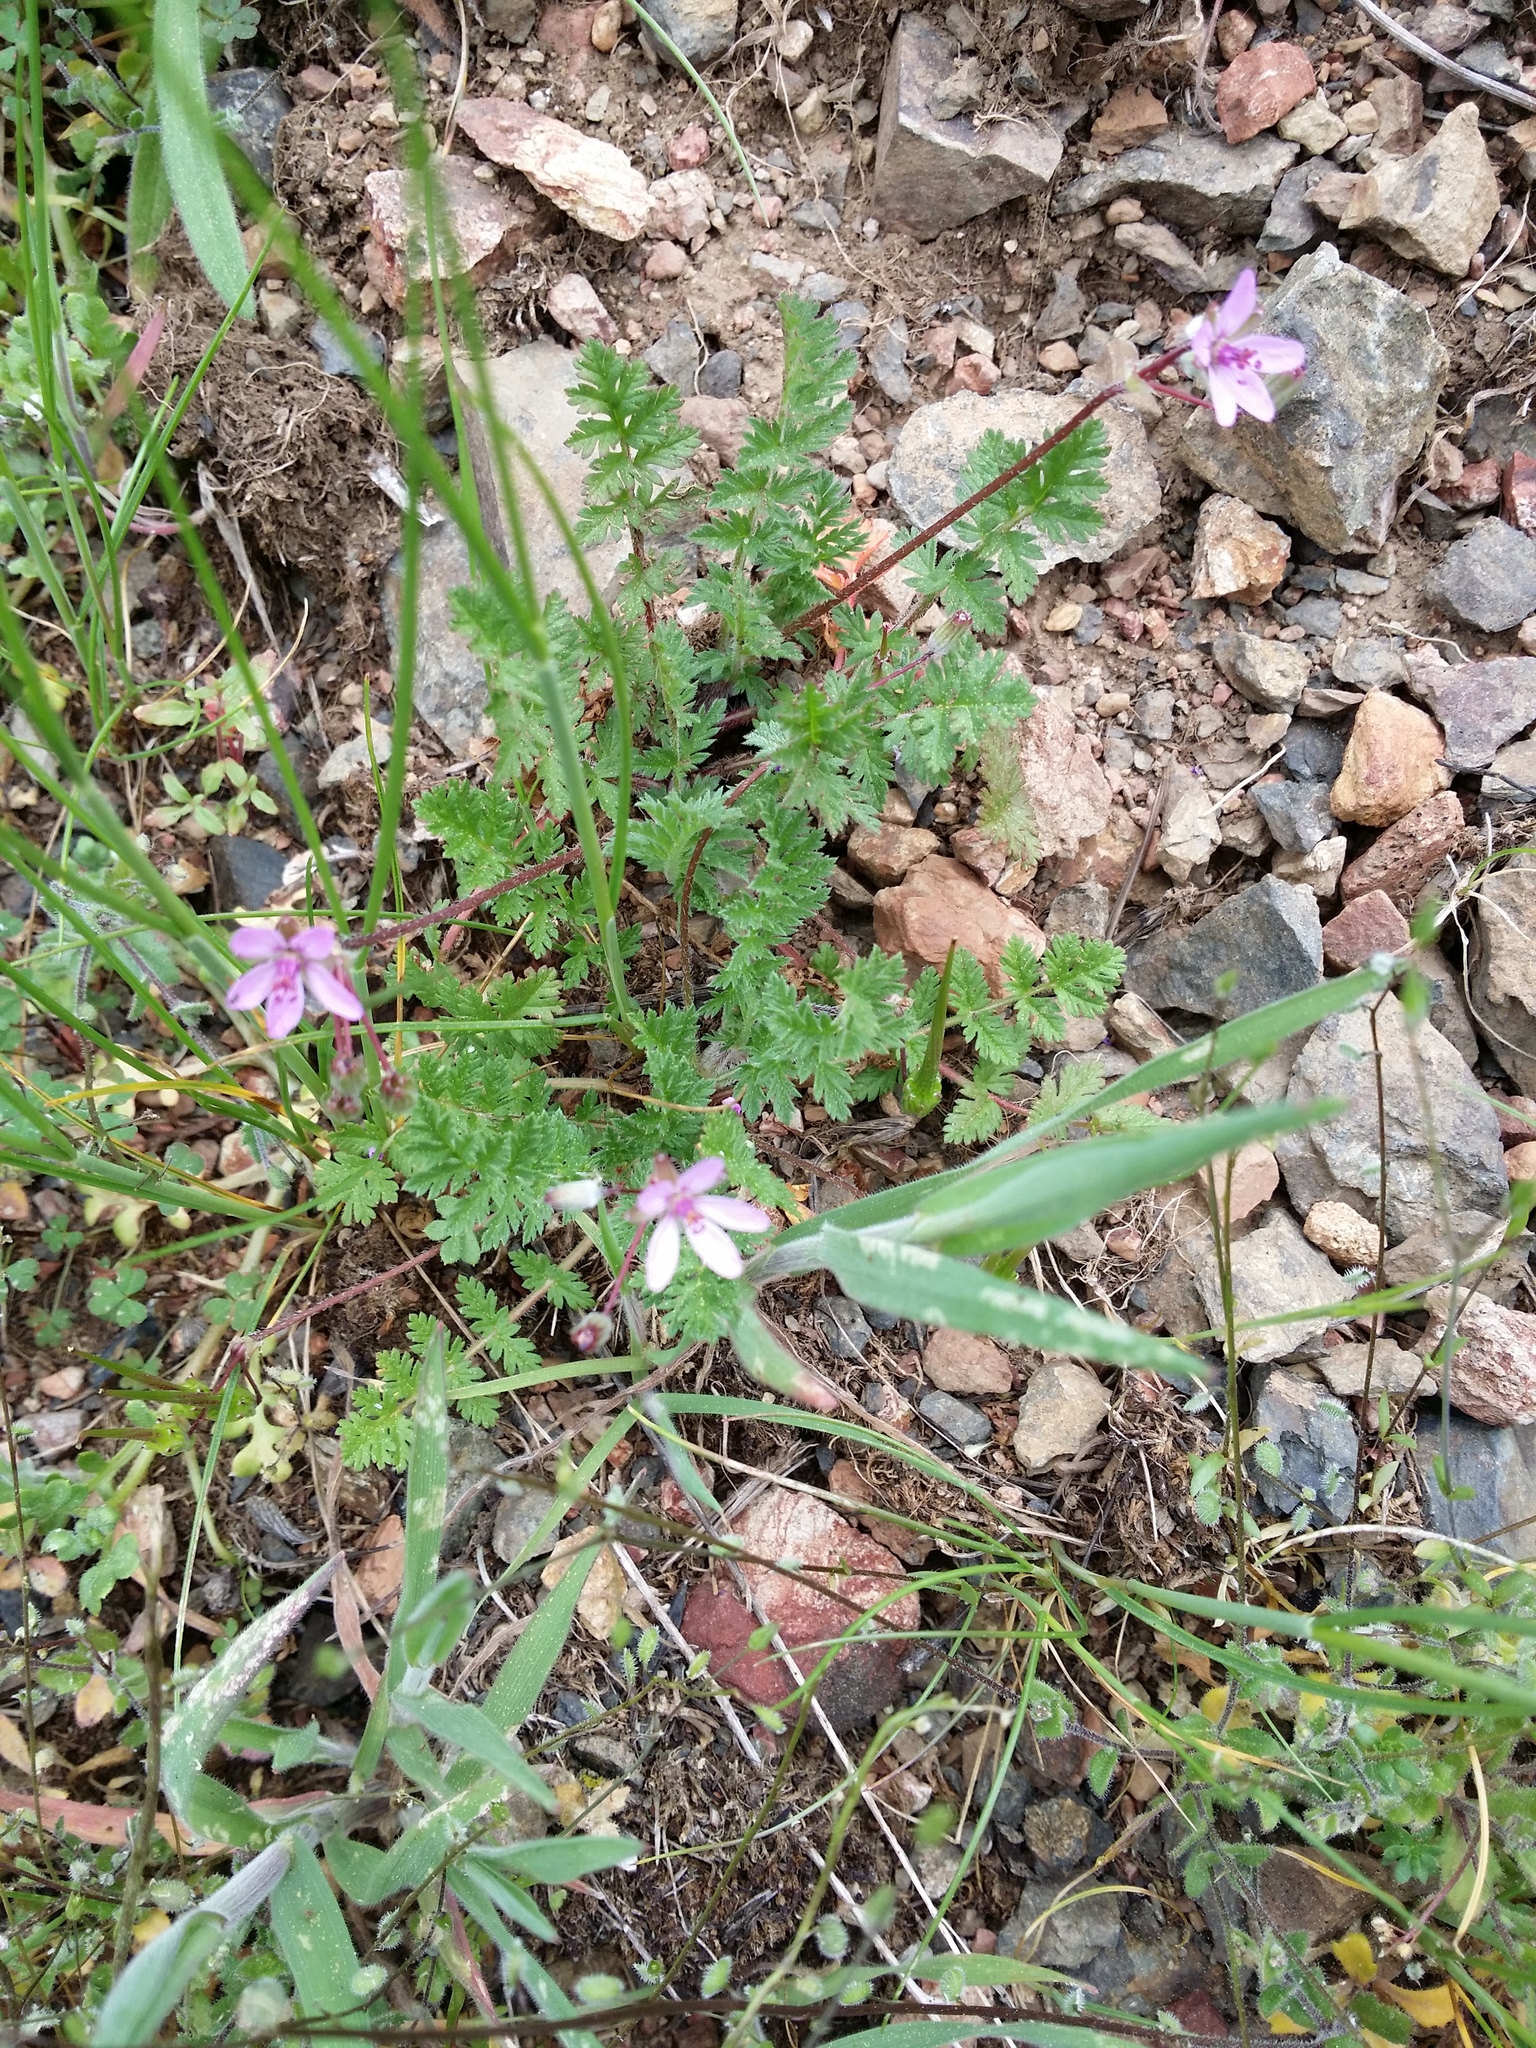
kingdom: Plantae
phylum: Tracheophyta
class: Magnoliopsida
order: Geraniales
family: Geraniaceae
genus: Erodium
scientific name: Erodium cicutarium
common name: Common stork's-bill
